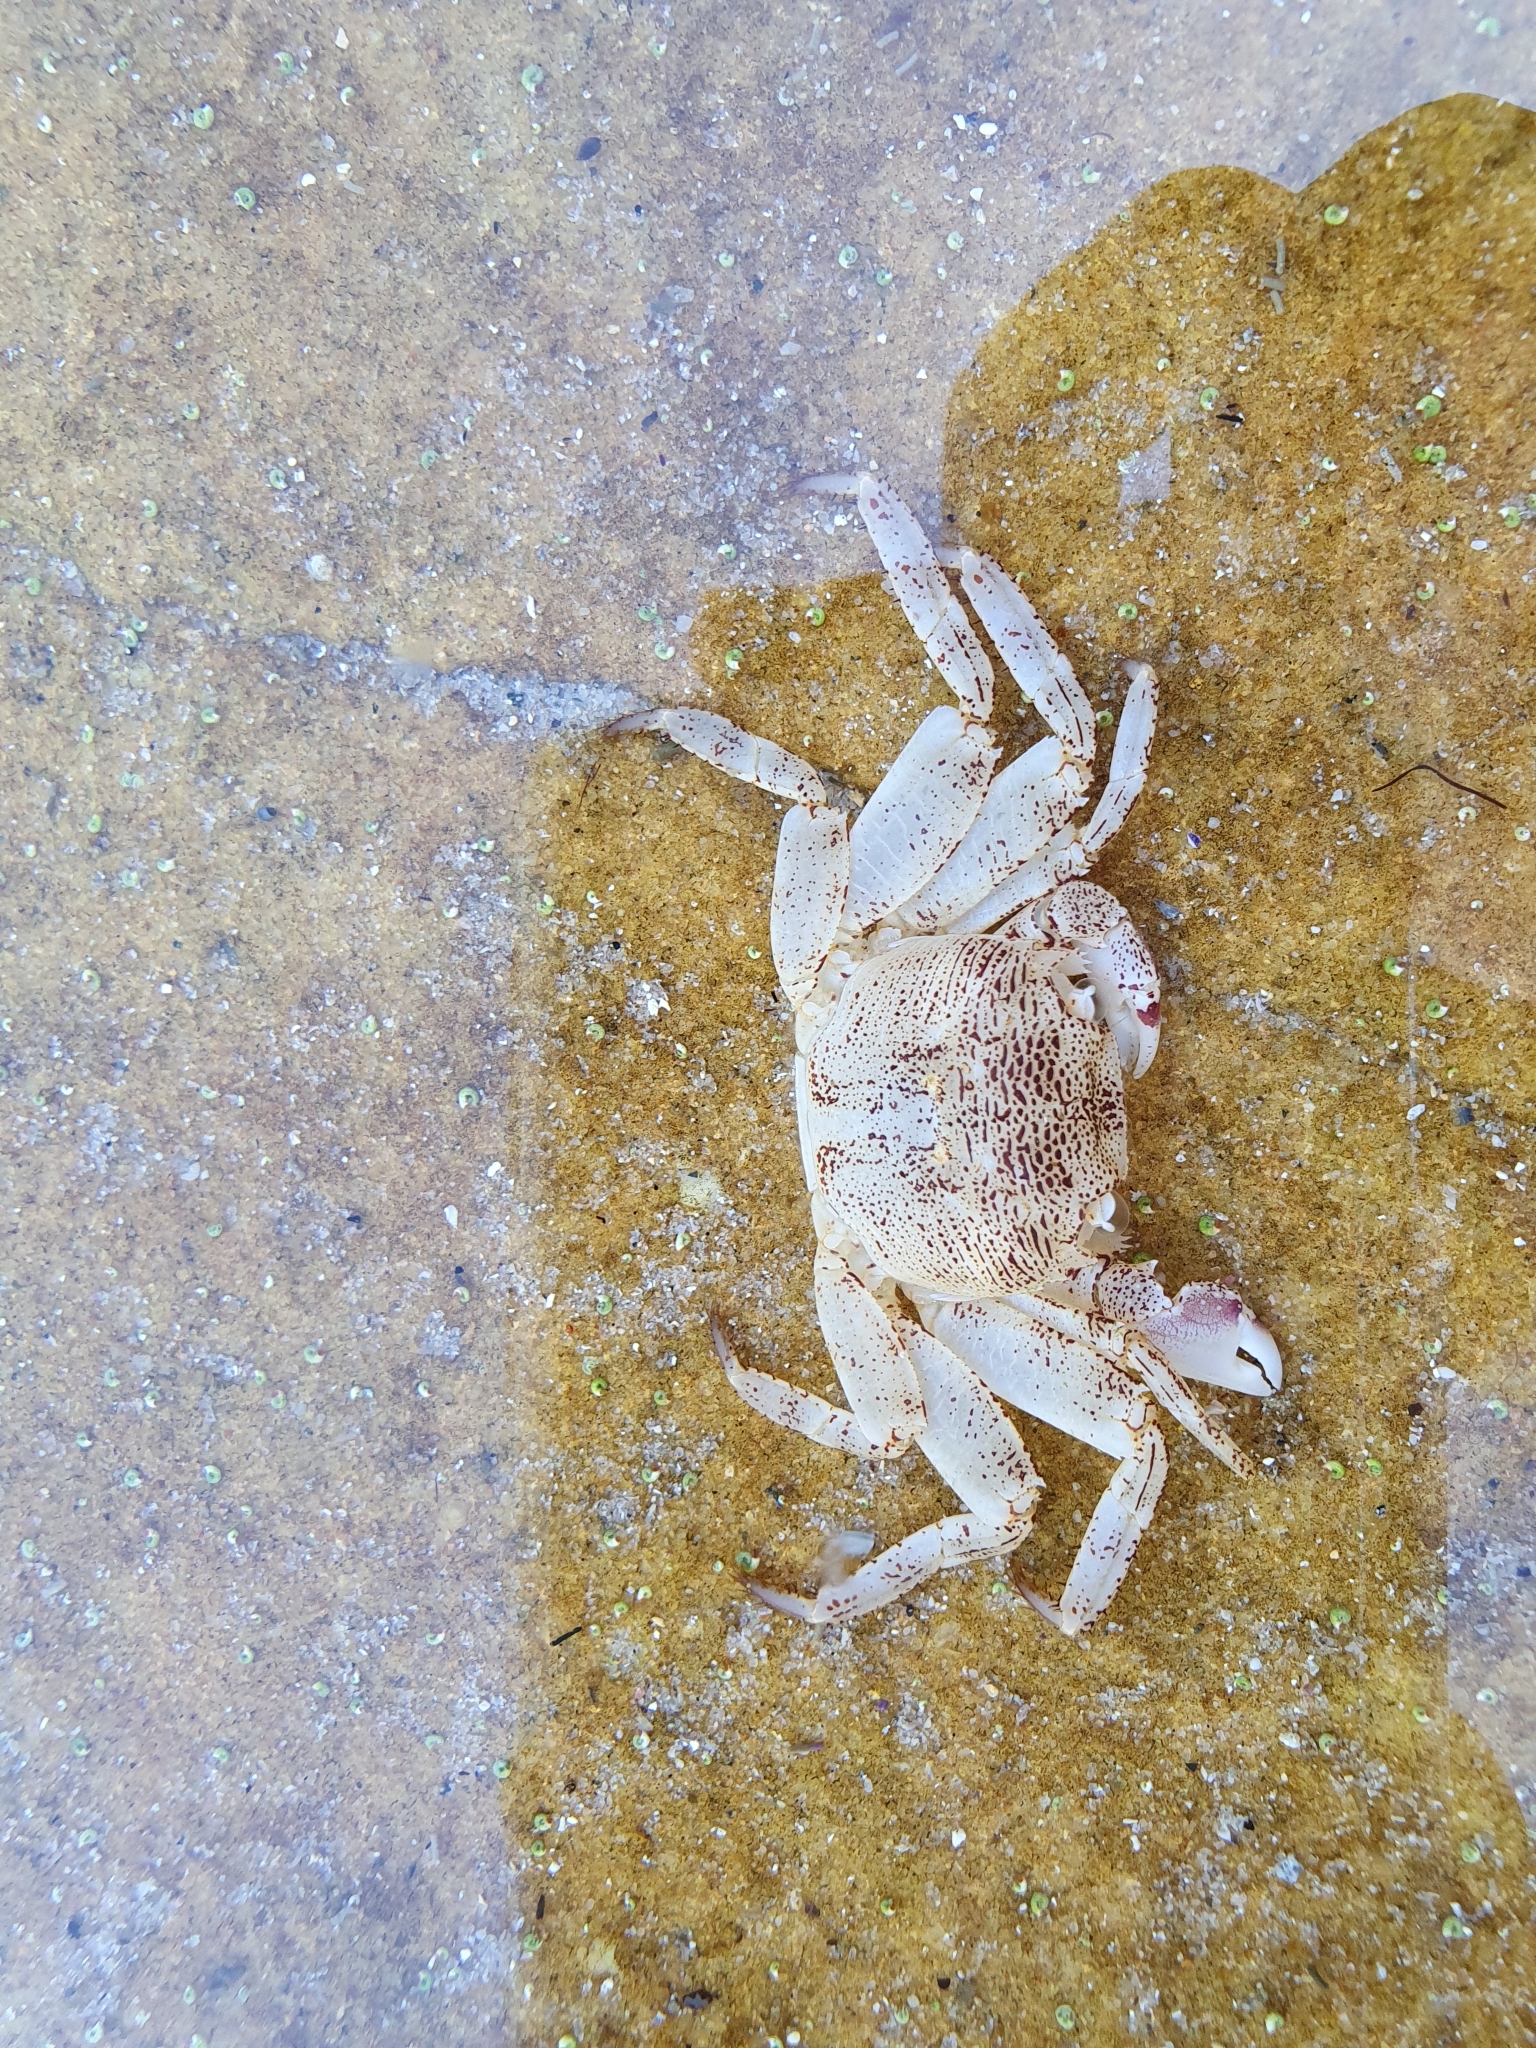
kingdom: Animalia
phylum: Arthropoda
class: Malacostraca
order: Decapoda
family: Grapsidae
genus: Leptograpsus
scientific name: Leptograpsus variegatus
